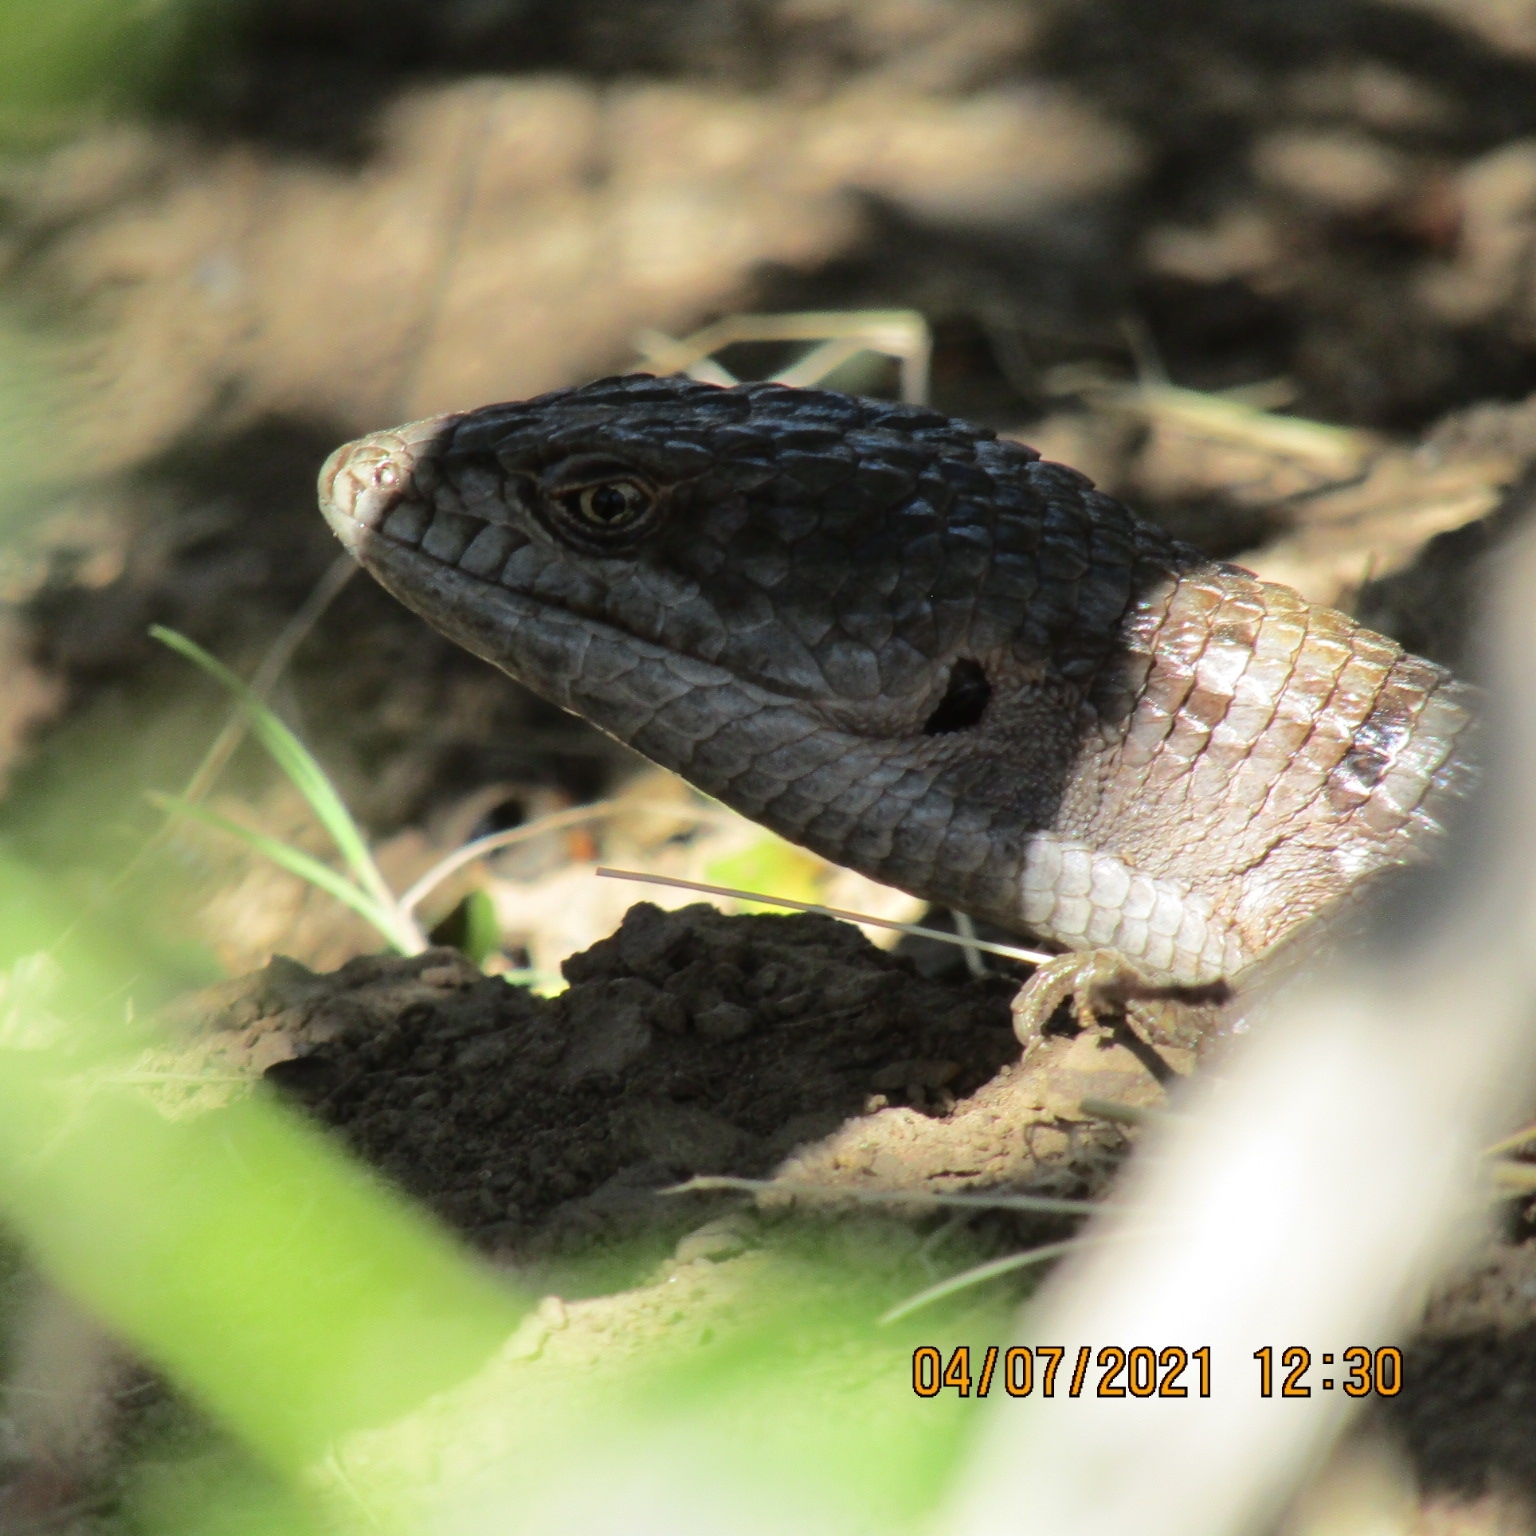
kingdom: Animalia
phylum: Chordata
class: Squamata
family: Anguidae
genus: Elgaria
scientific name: Elgaria multicarinata
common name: Southern alligator lizard
